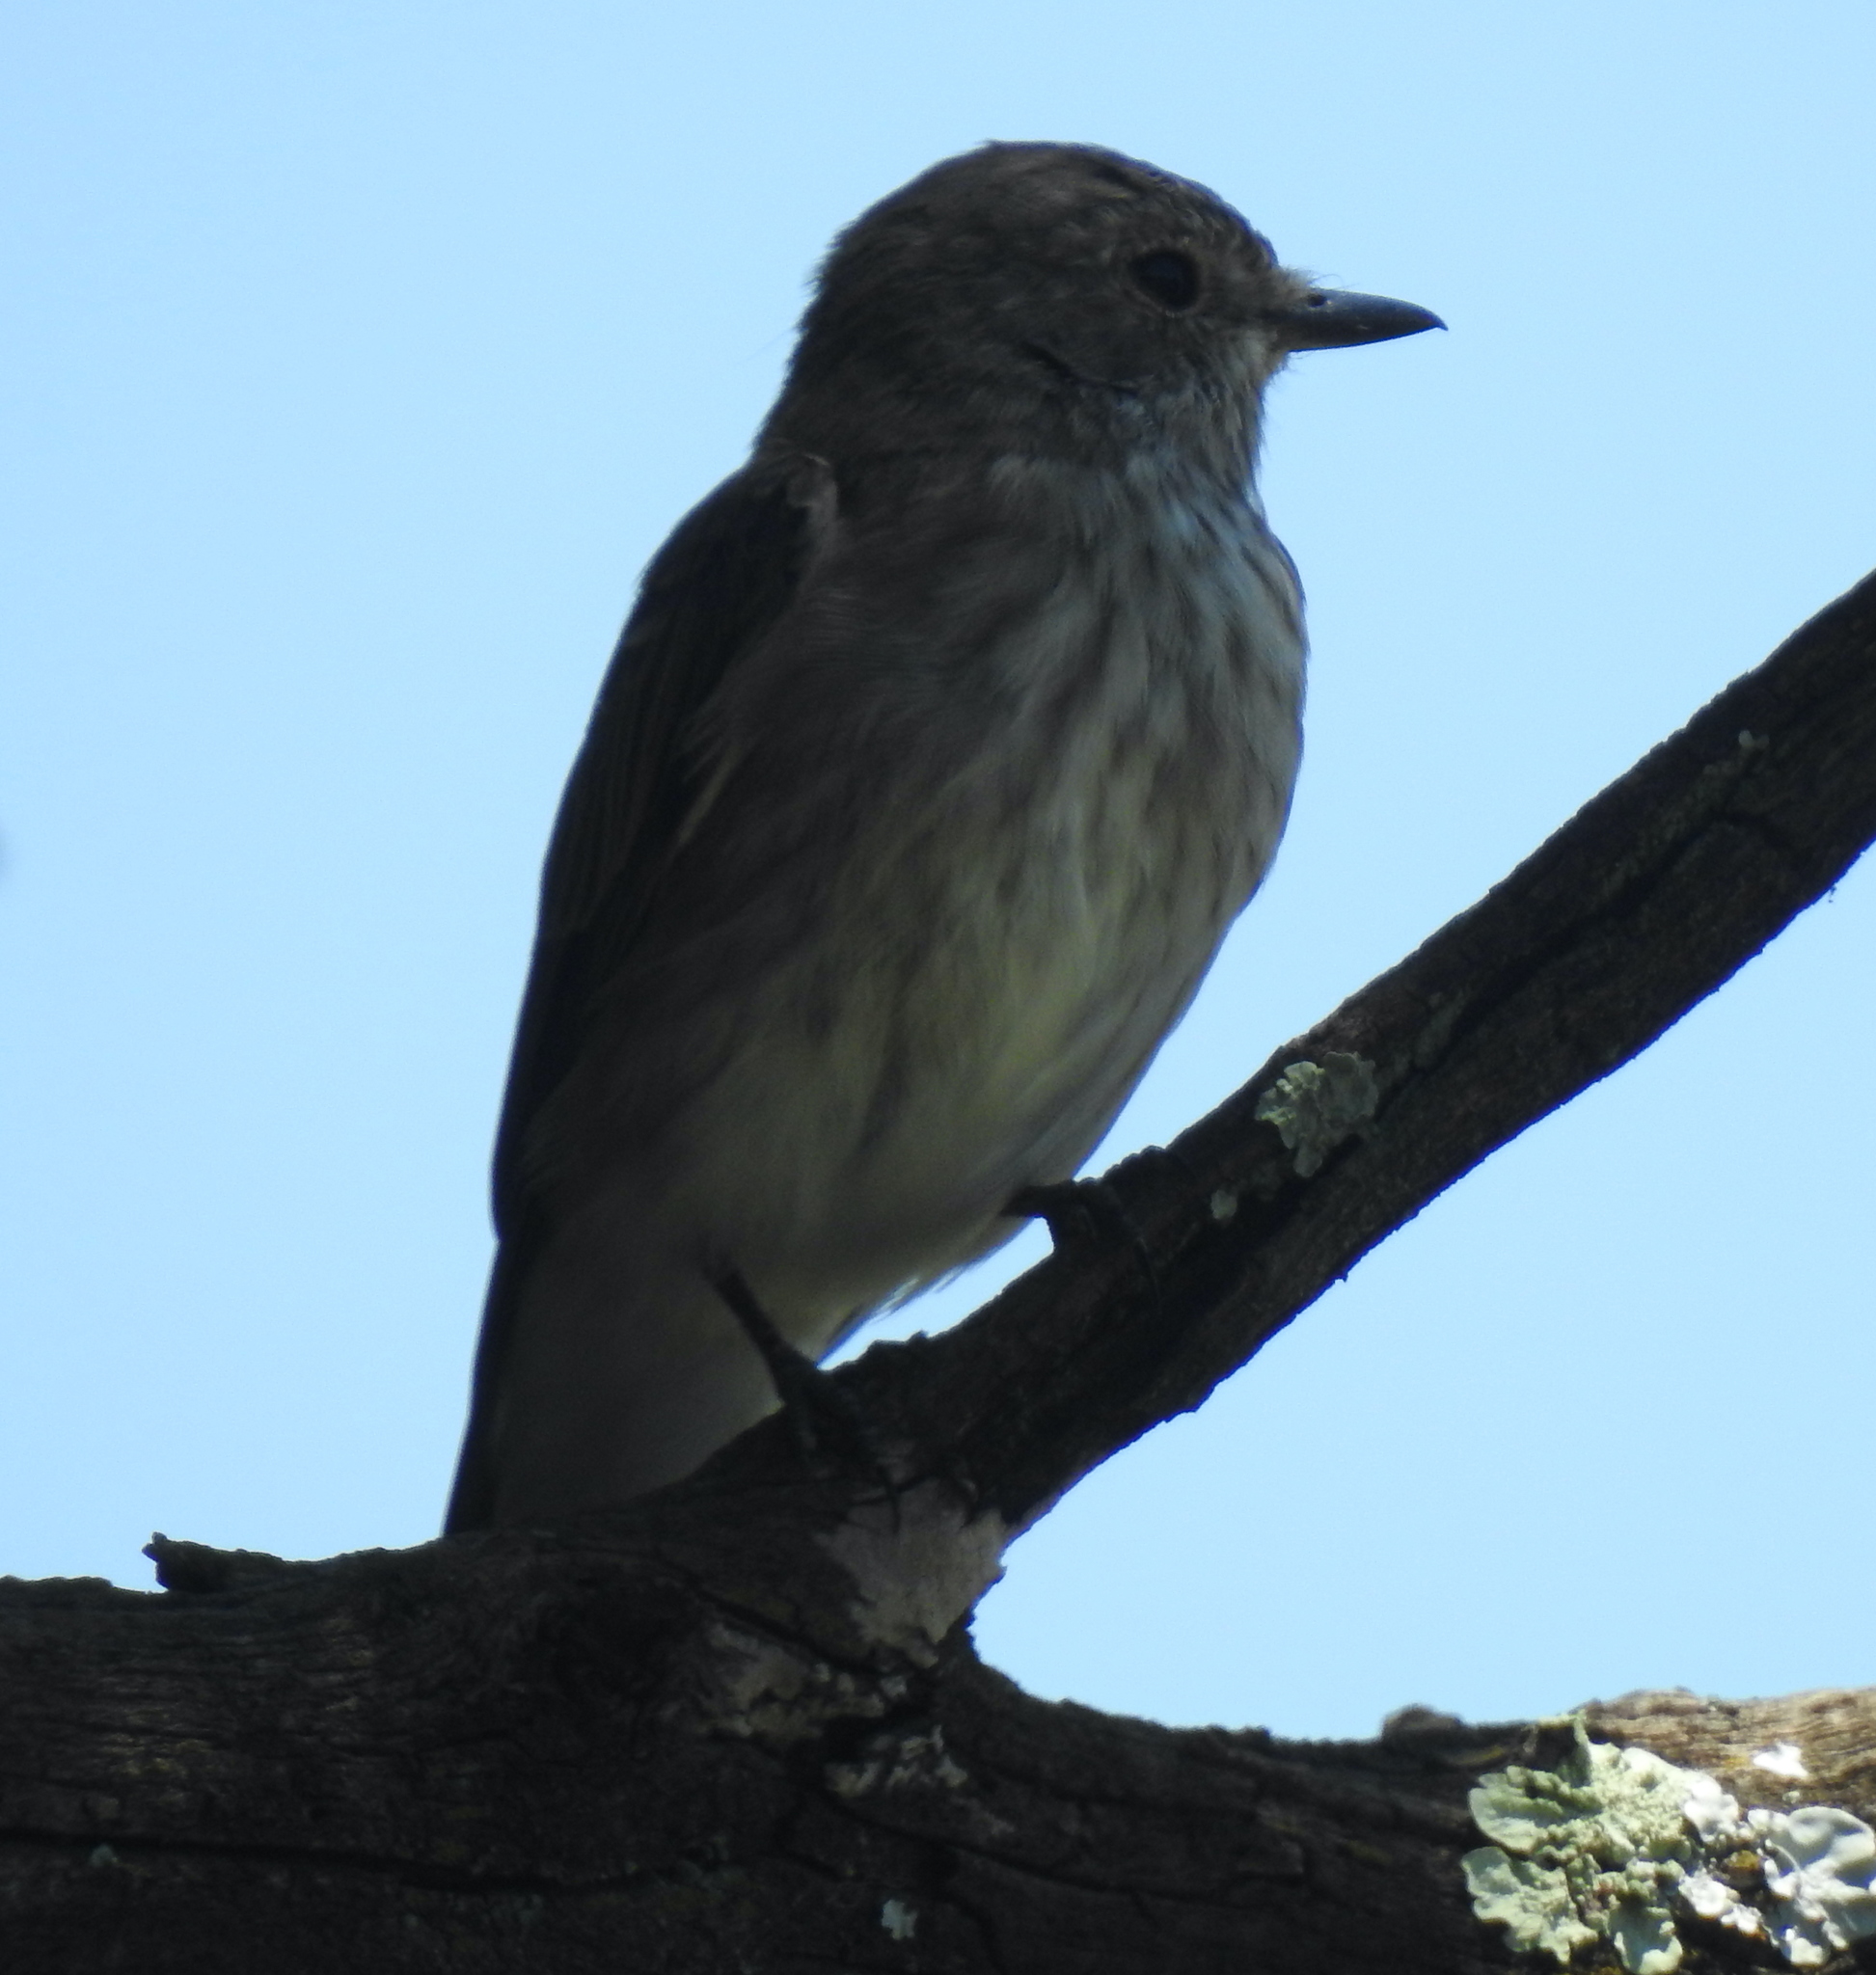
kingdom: Animalia
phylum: Chordata
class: Aves
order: Passeriformes
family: Muscicapidae
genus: Muscicapa
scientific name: Muscicapa striata
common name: Spotted flycatcher
